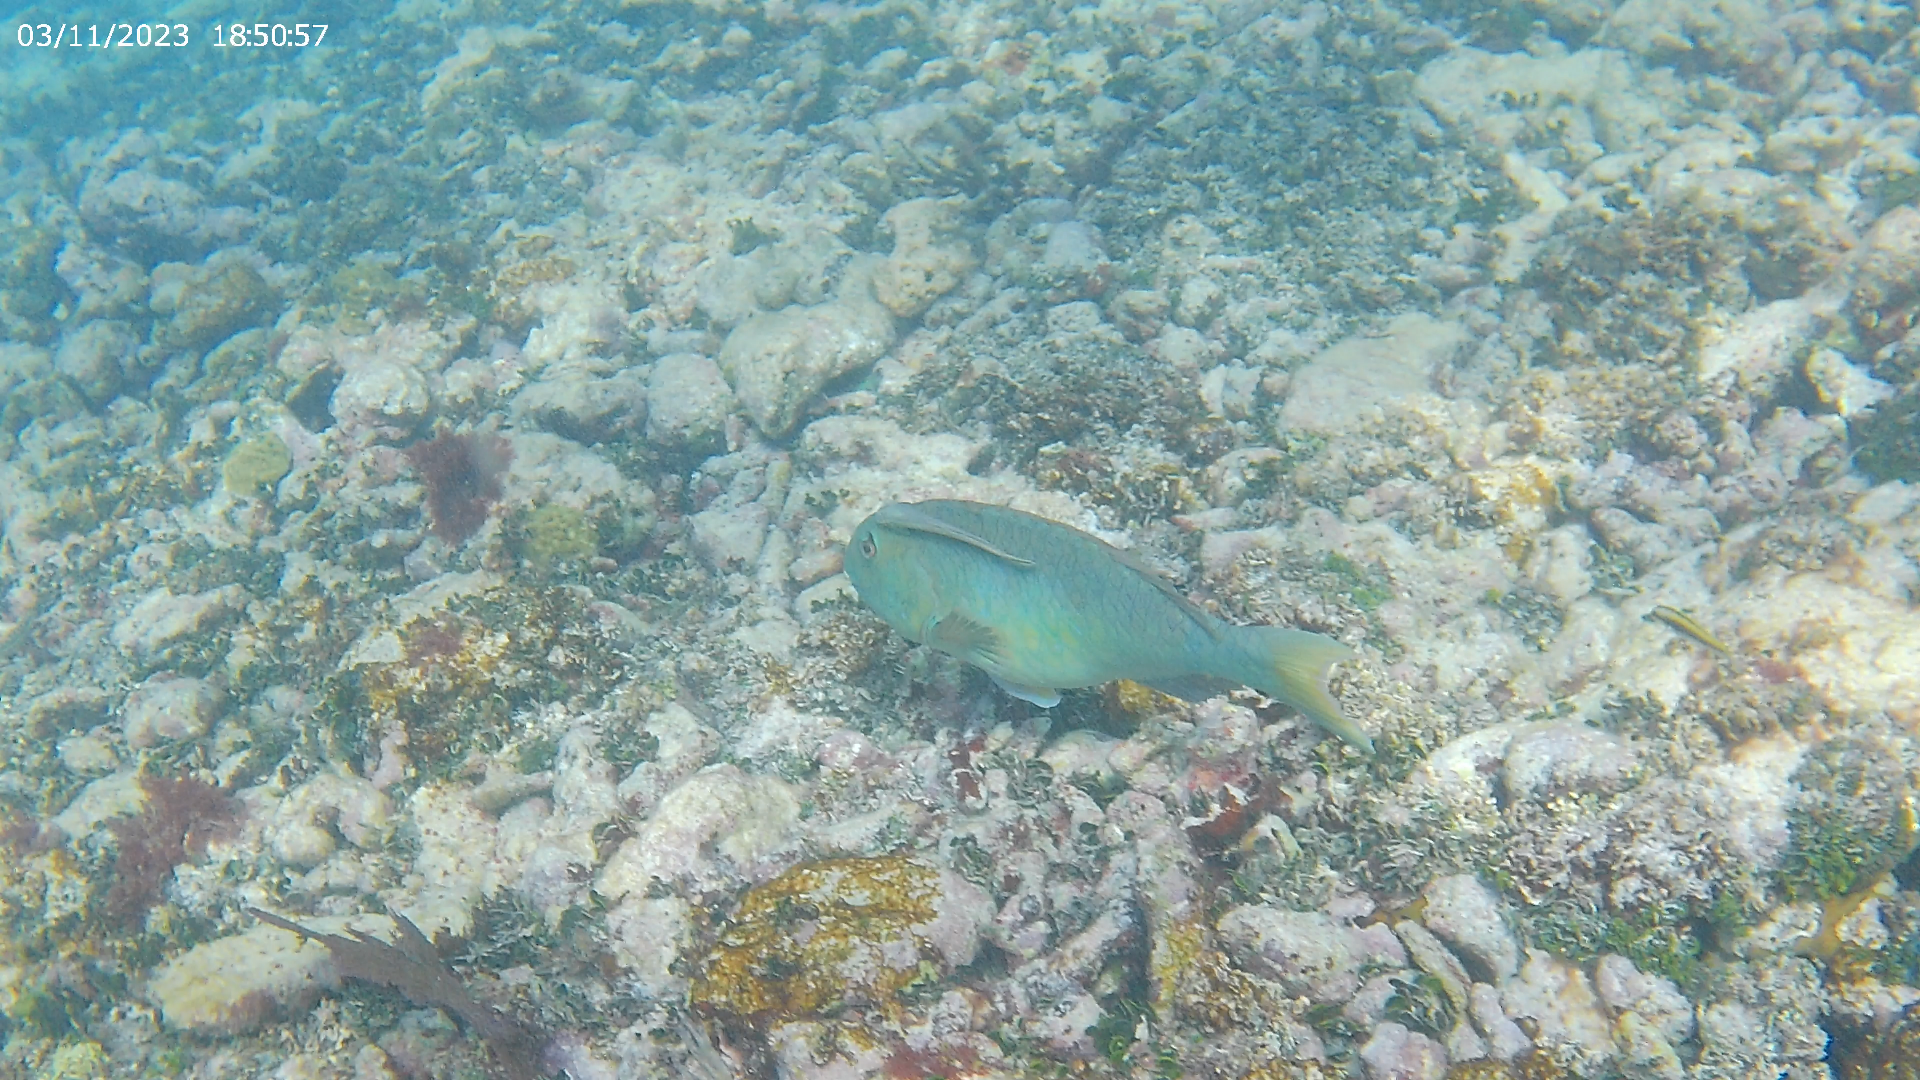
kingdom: Animalia
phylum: Chordata
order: Perciformes
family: Echeneidae
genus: Echeneis
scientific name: Echeneis naucrates
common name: Sharksucker
